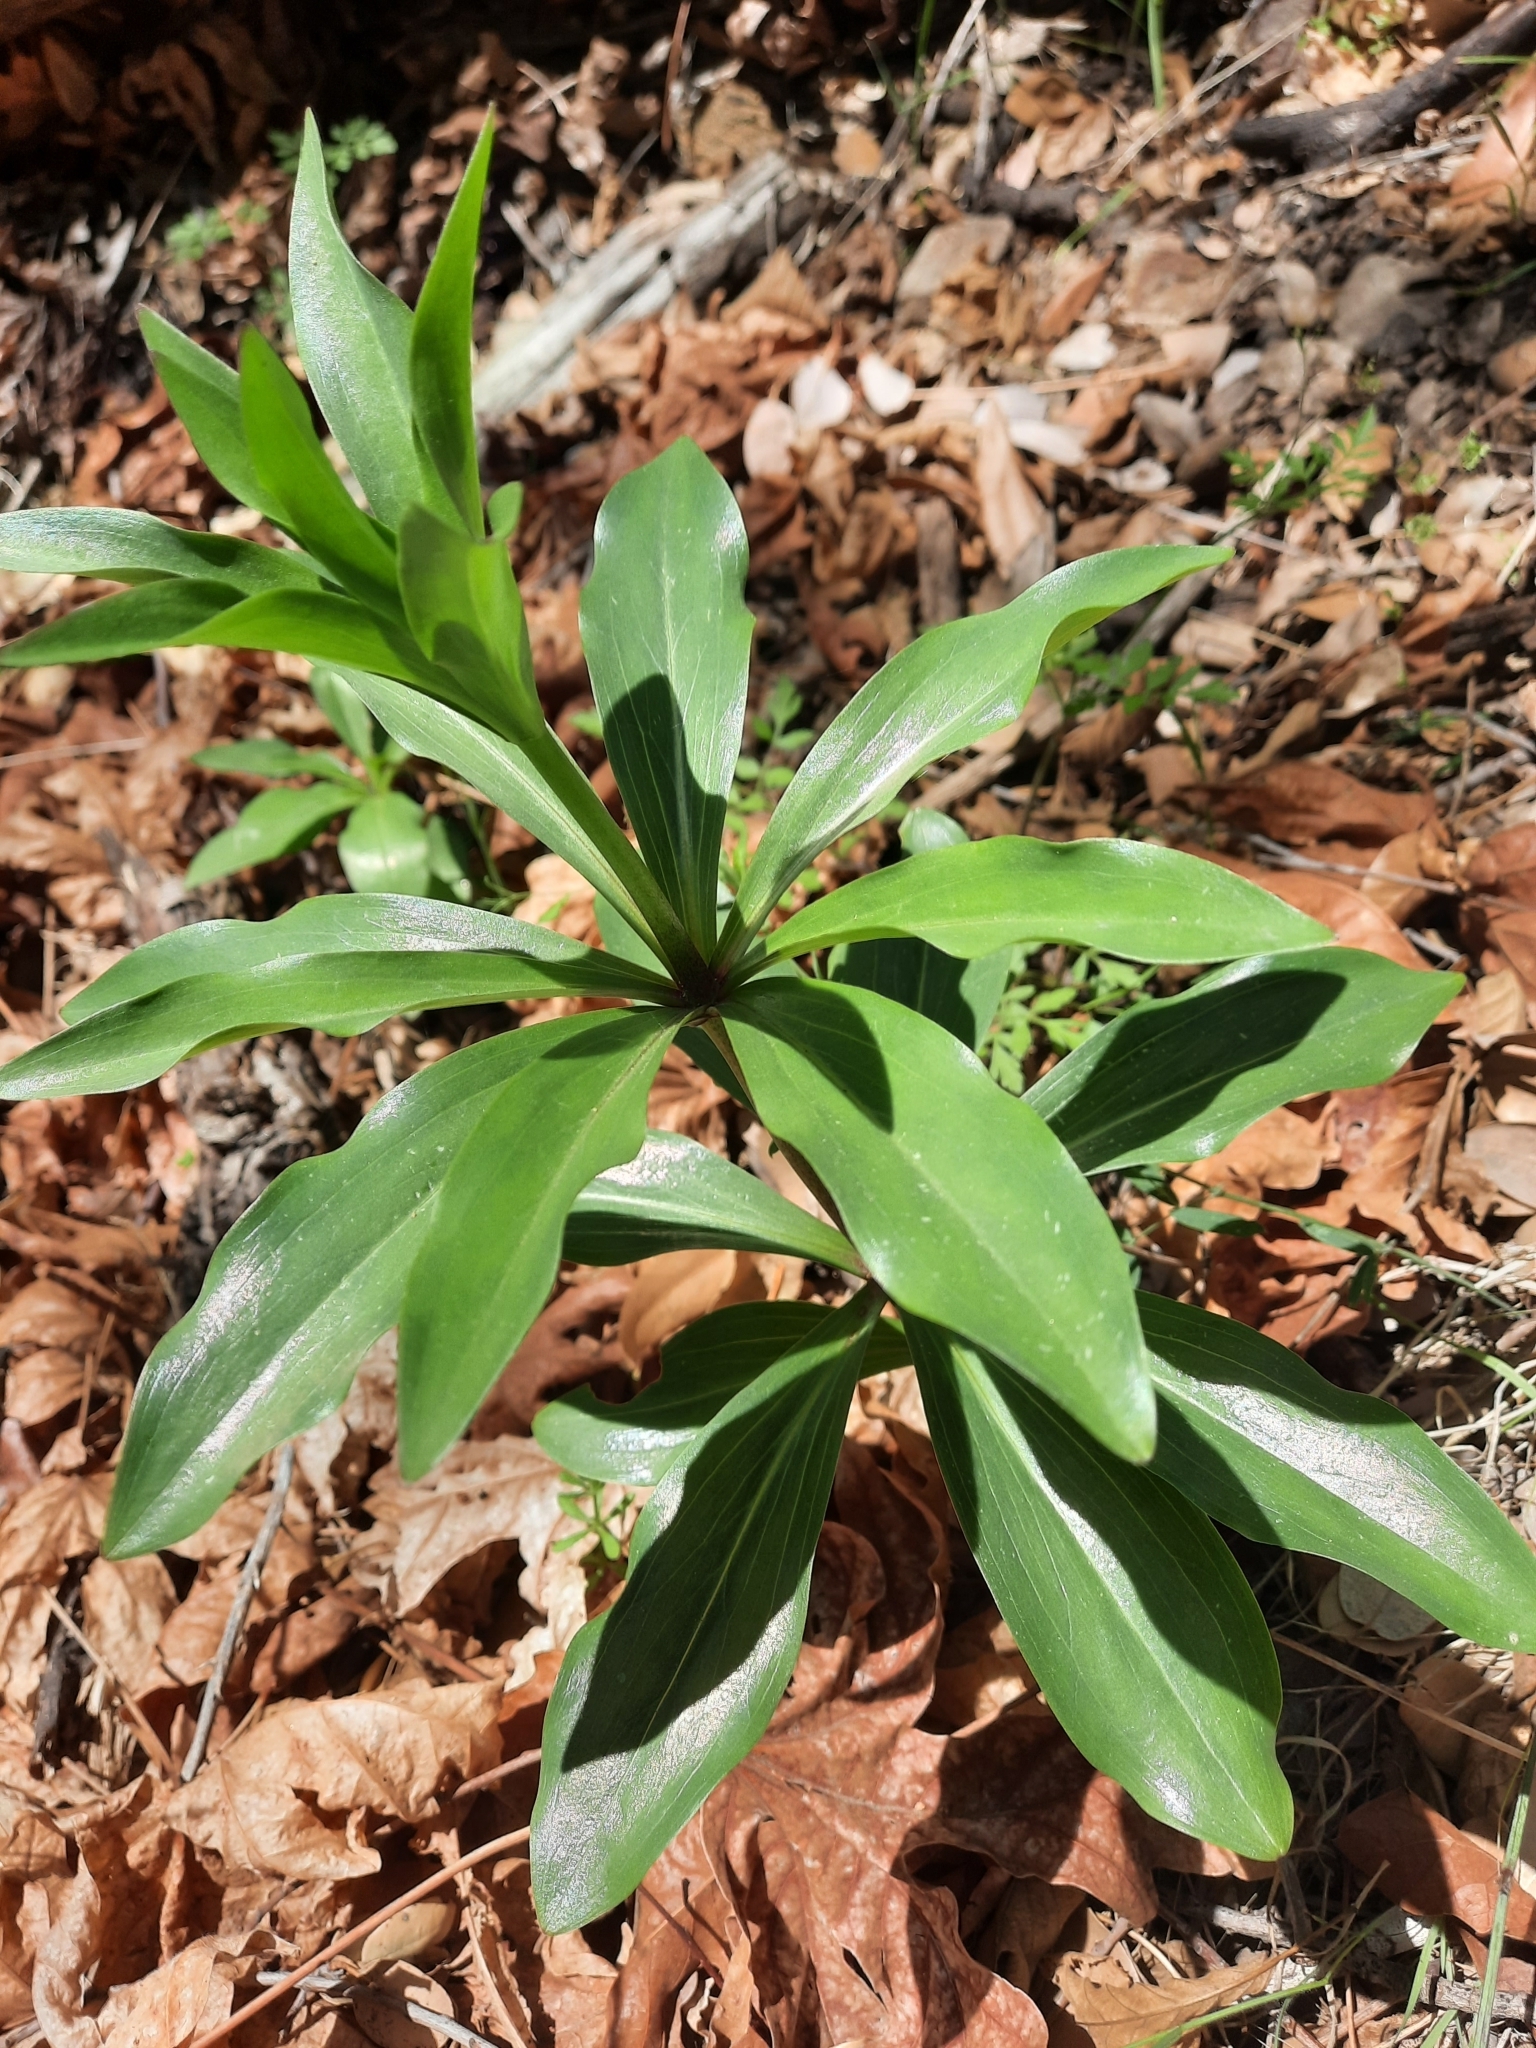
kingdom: Plantae
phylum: Tracheophyta
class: Liliopsida
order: Liliales
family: Liliaceae
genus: Lilium
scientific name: Lilium humboldtii
